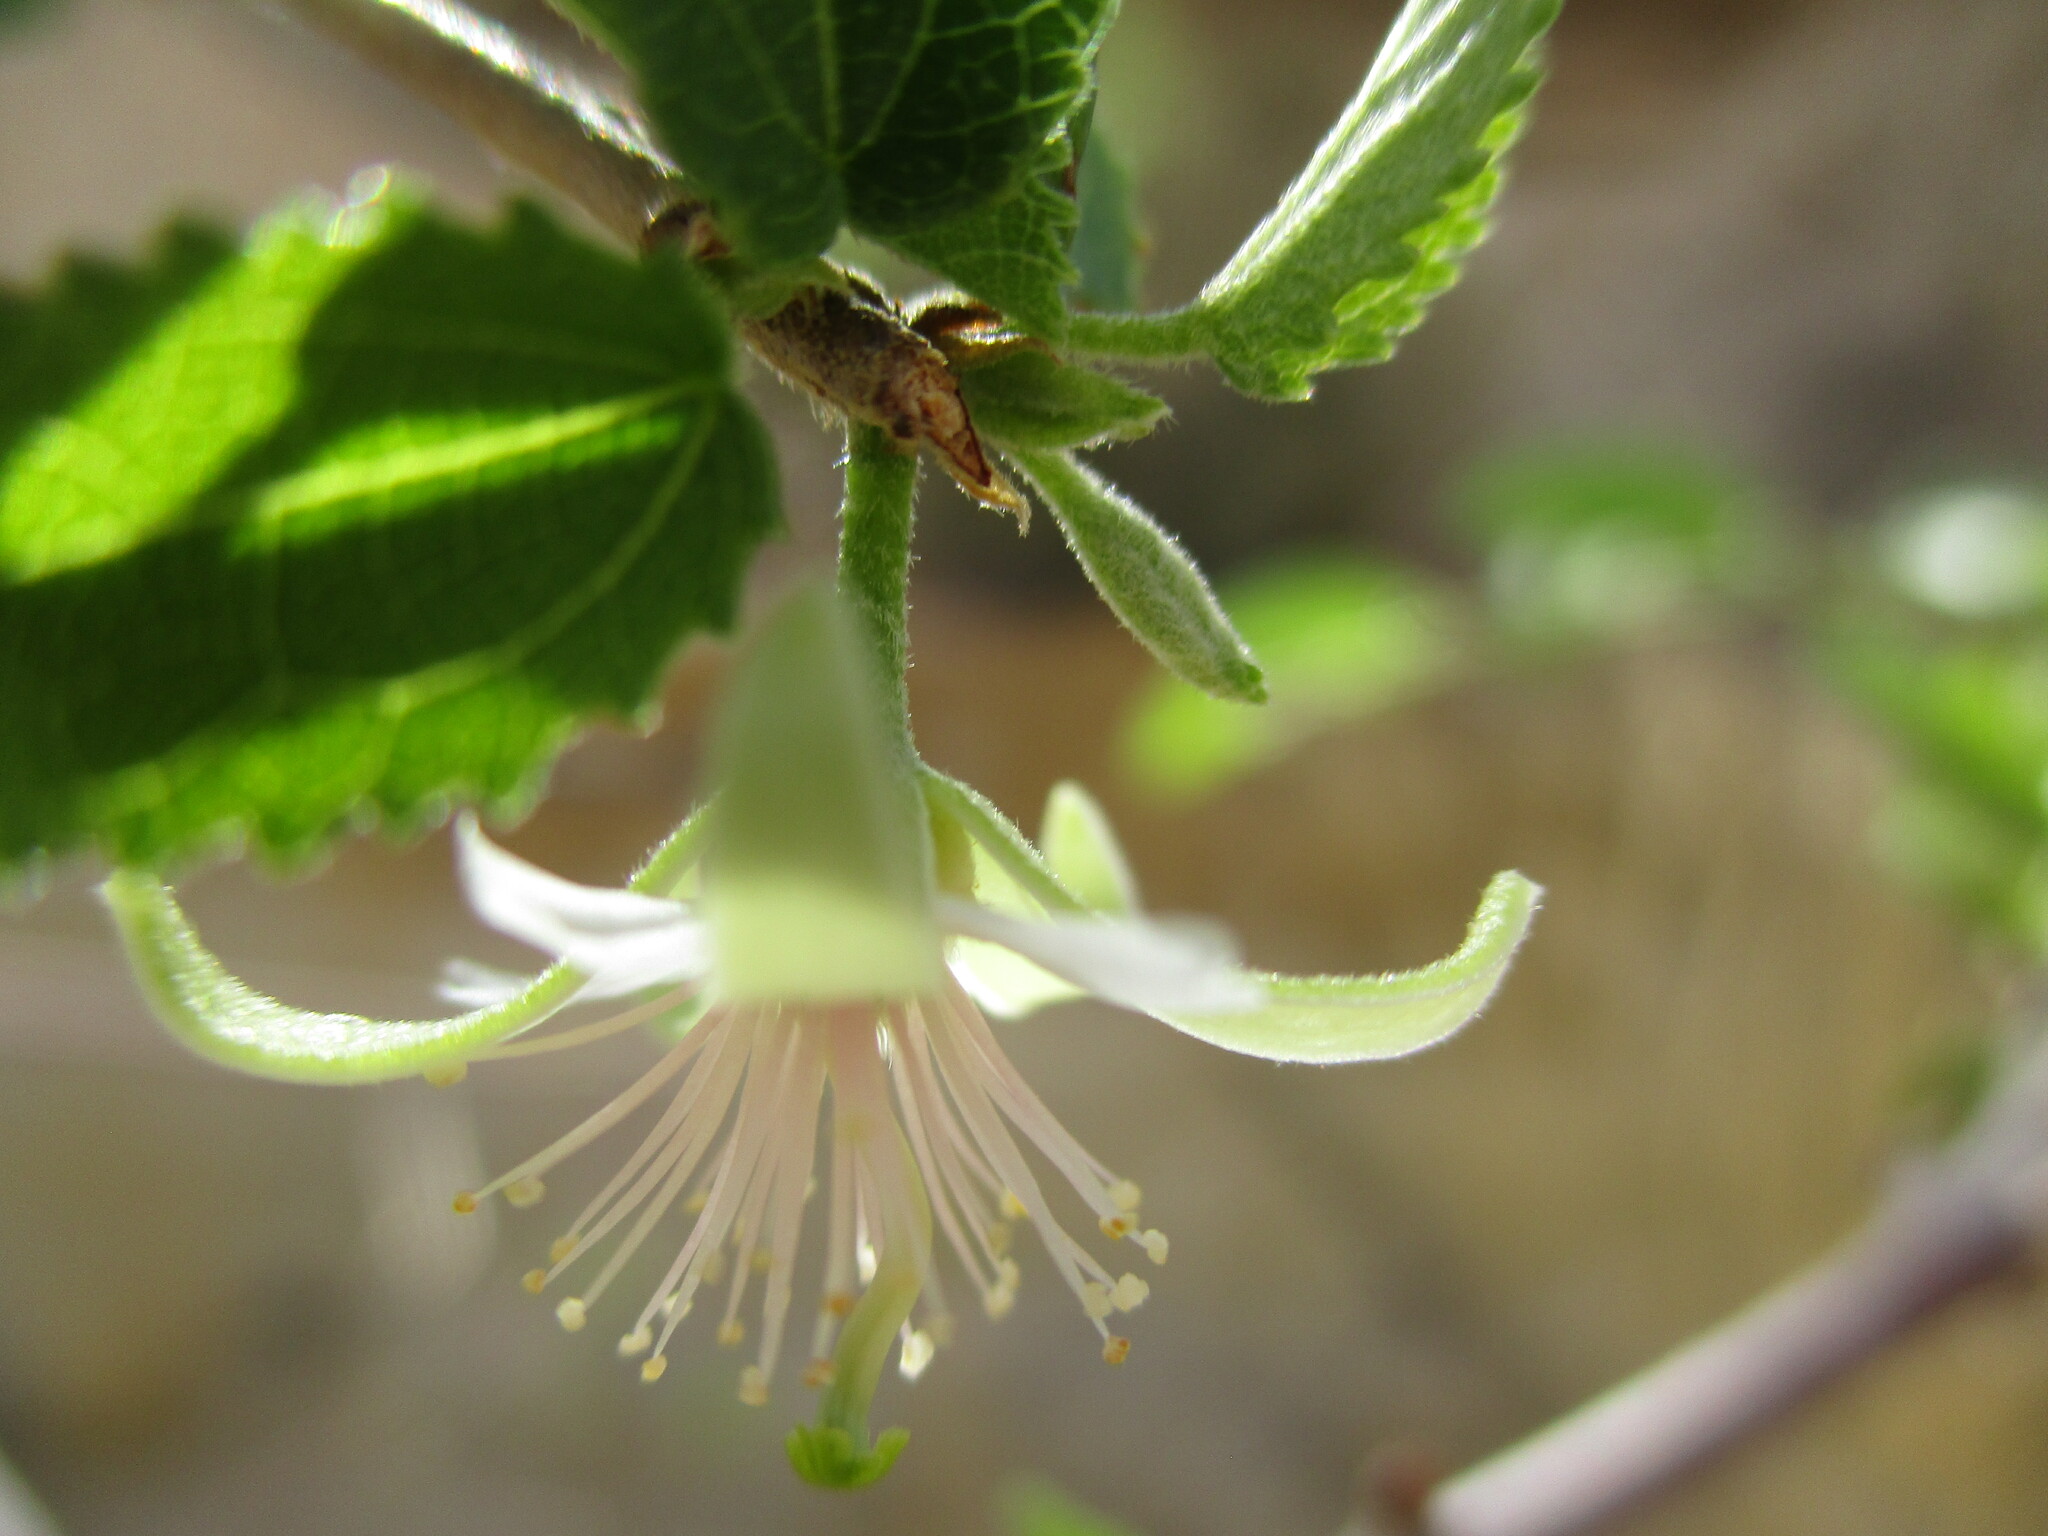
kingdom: Plantae
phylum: Tracheophyta
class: Magnoliopsida
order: Malvales
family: Malvaceae
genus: Grewia
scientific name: Grewia tenax
